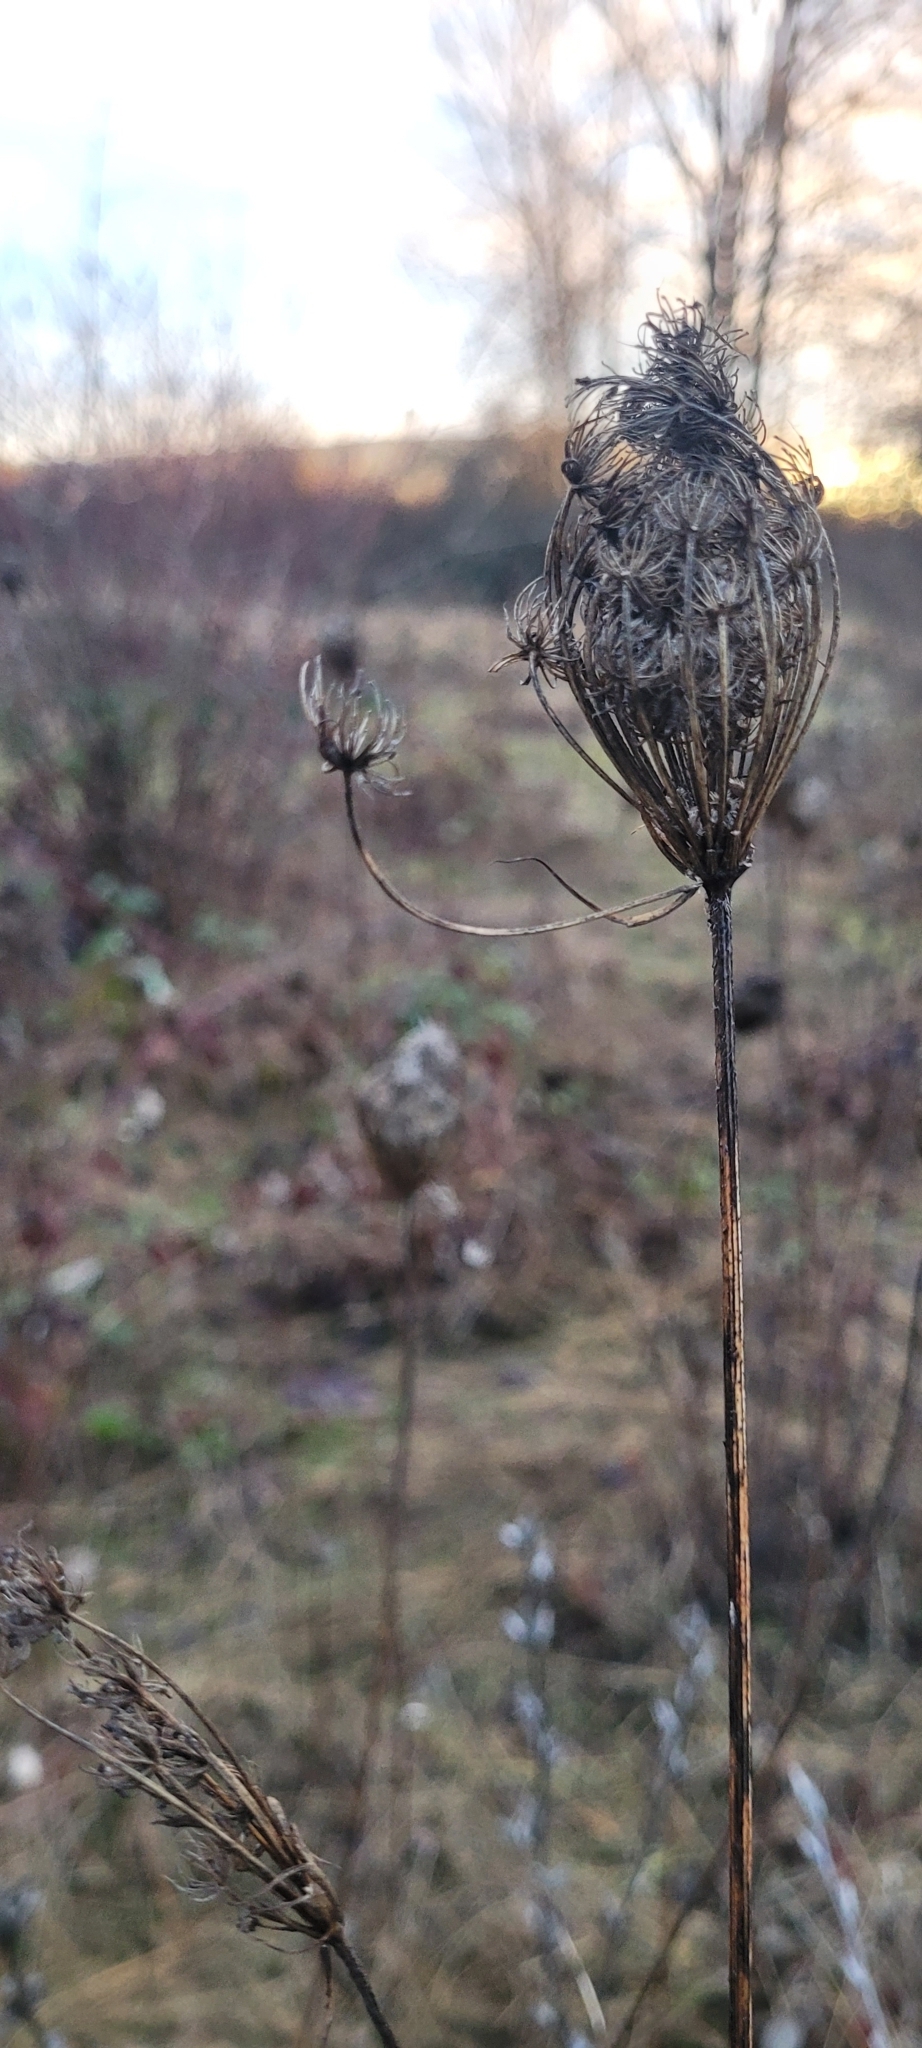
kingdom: Plantae
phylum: Tracheophyta
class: Magnoliopsida
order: Apiales
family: Apiaceae
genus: Daucus
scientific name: Daucus carota
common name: Wild carrot
